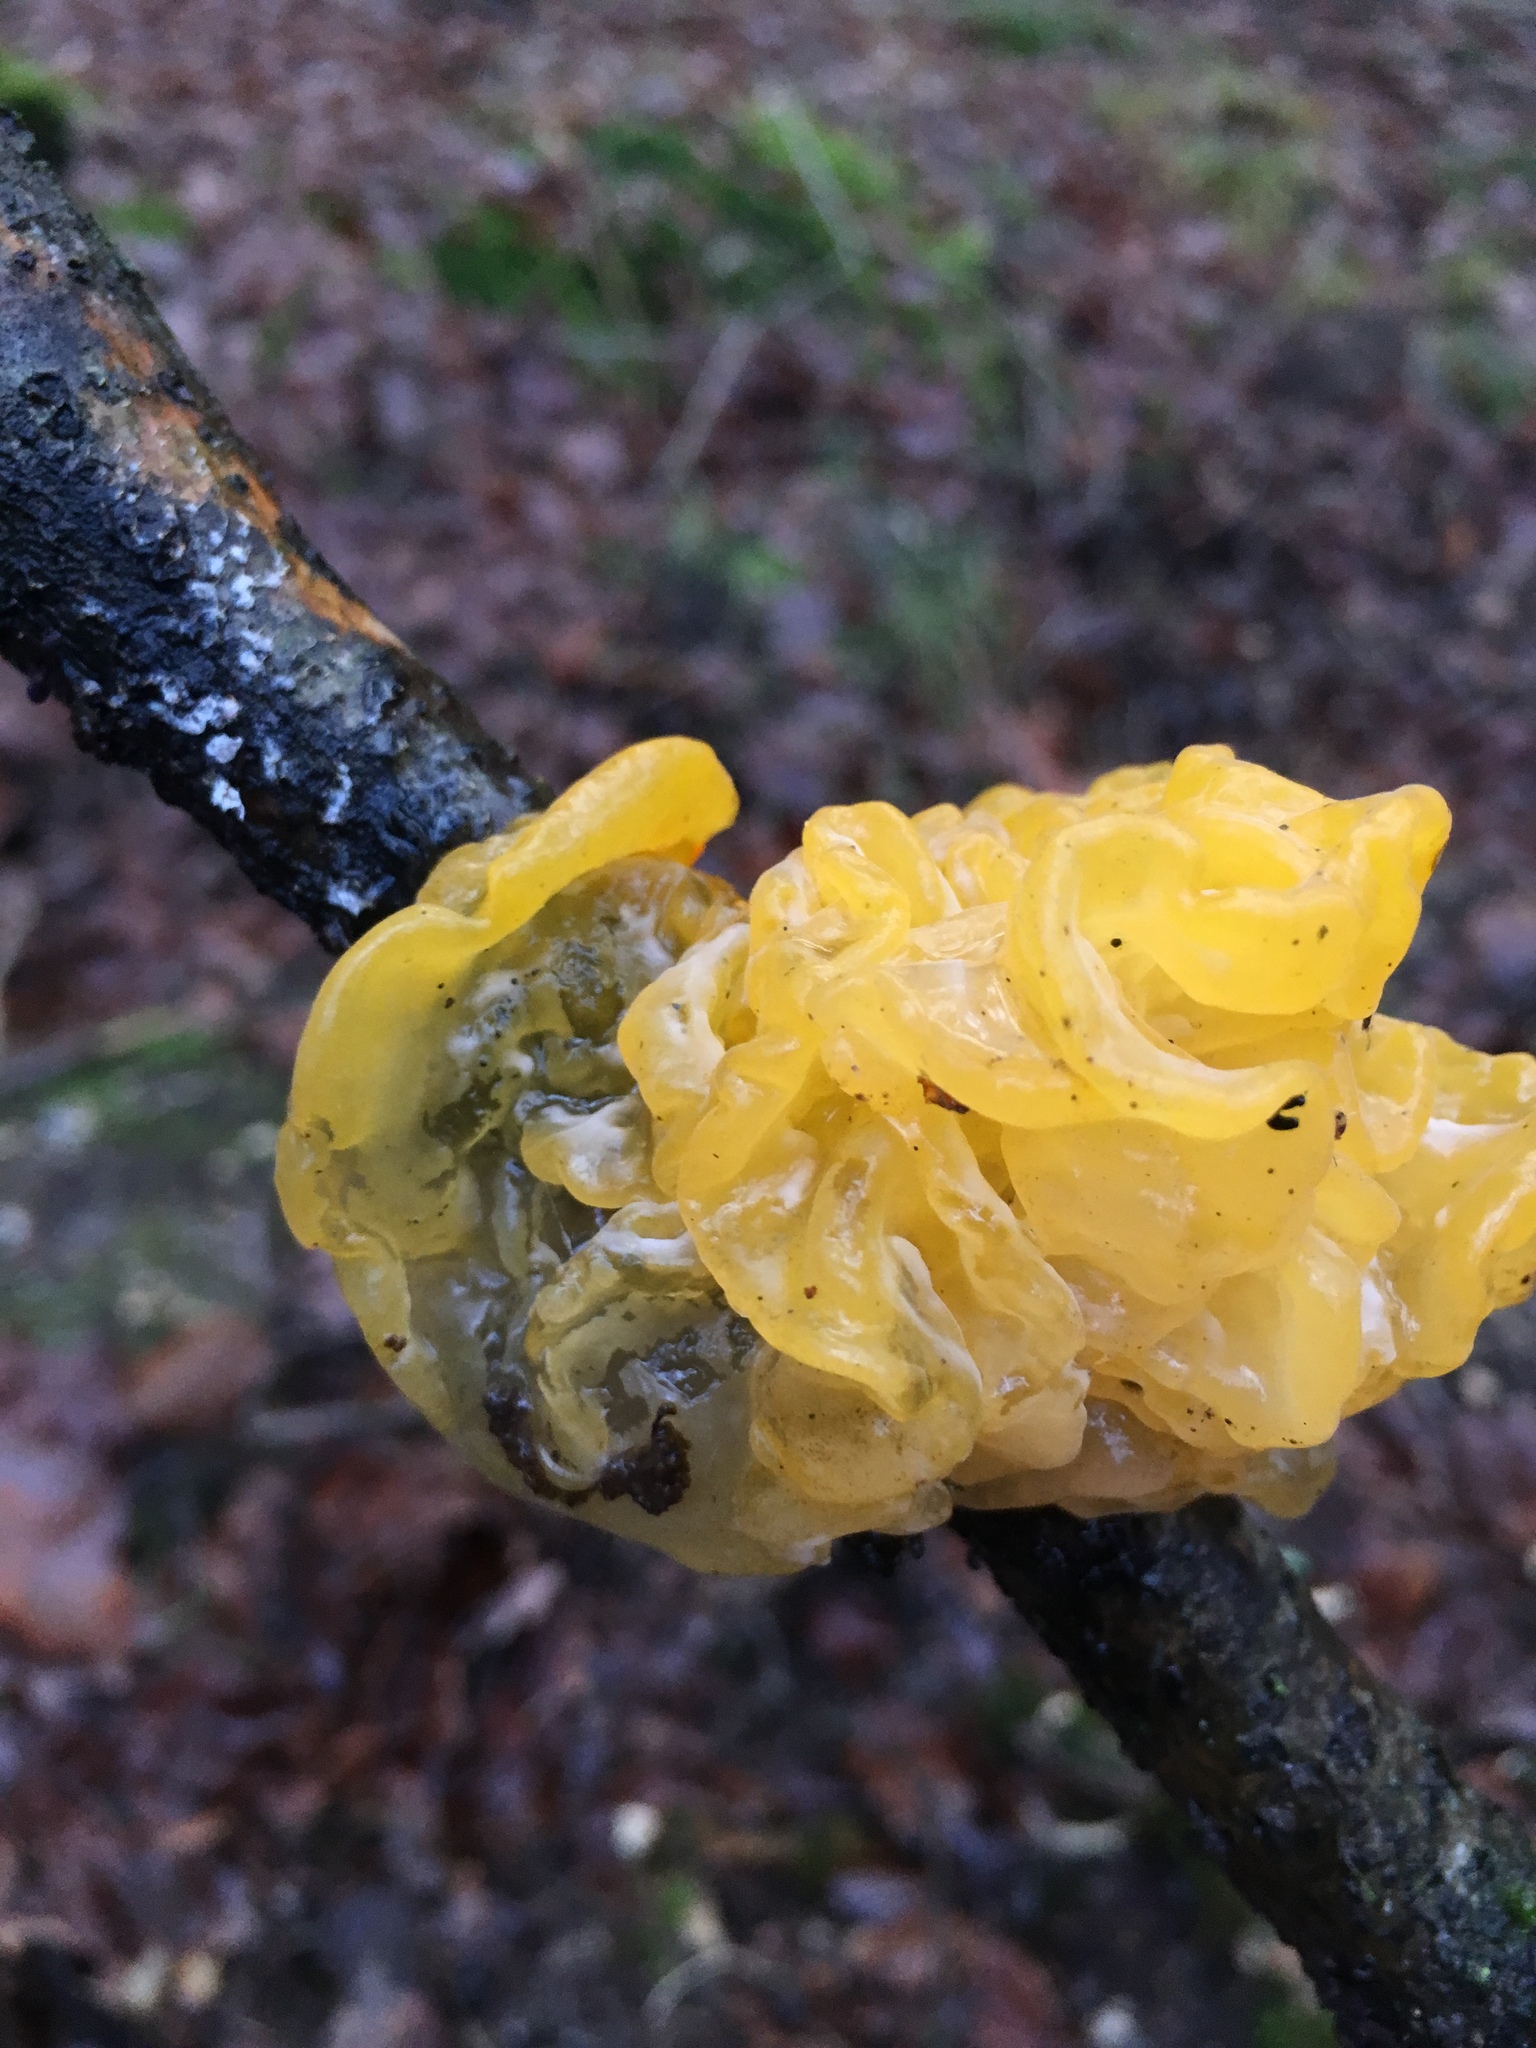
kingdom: Fungi
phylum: Basidiomycota
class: Tremellomycetes
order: Tremellales
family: Tremellaceae
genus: Tremella
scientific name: Tremella mesenterica
